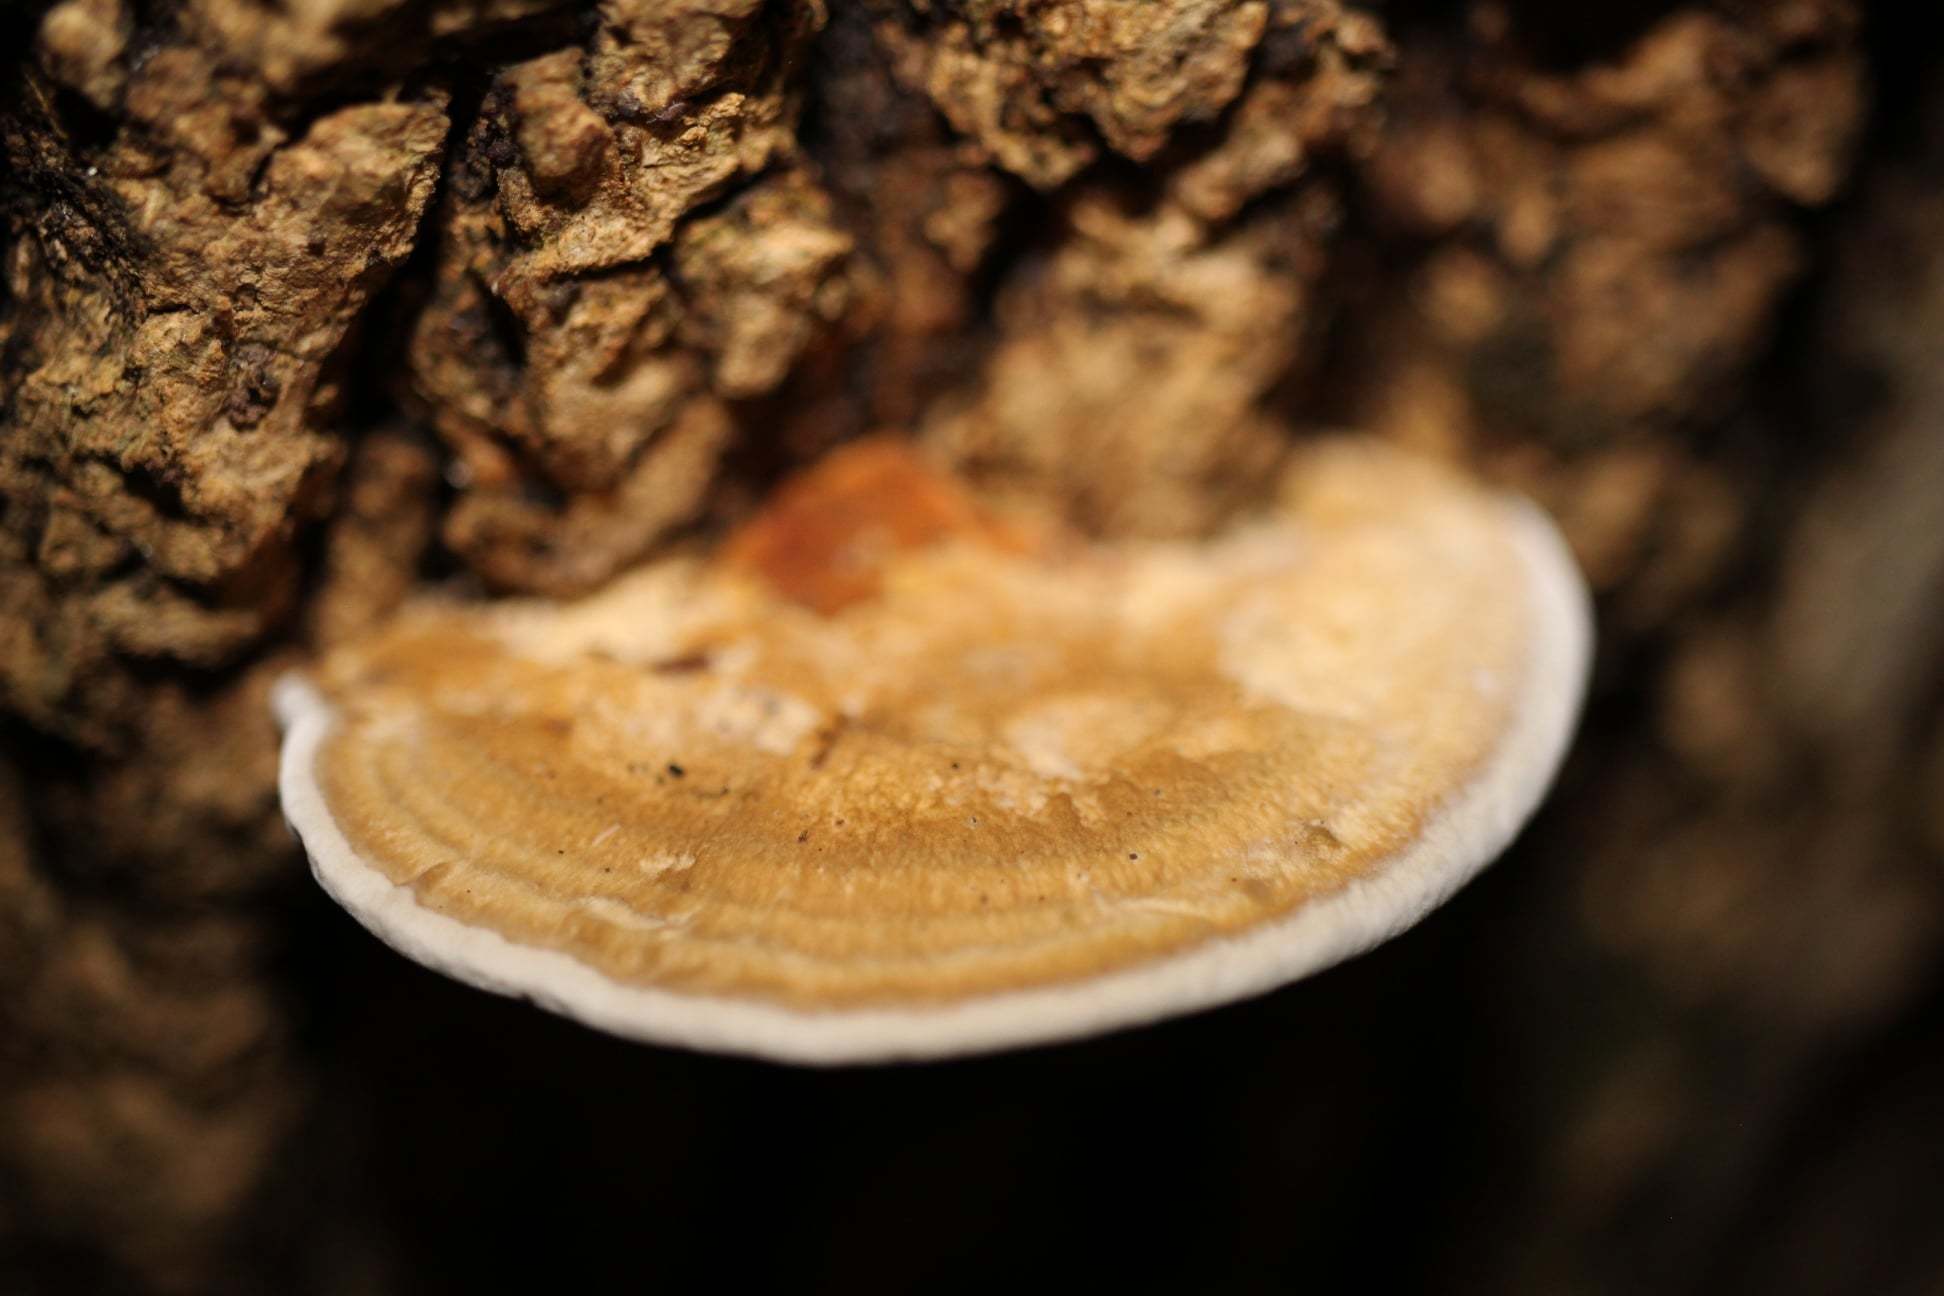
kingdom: Fungi
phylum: Basidiomycota
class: Agaricomycetes
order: Polyporales
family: Polyporaceae
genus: Daedaleopsis
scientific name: Daedaleopsis confragosa
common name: Blushing bracket
